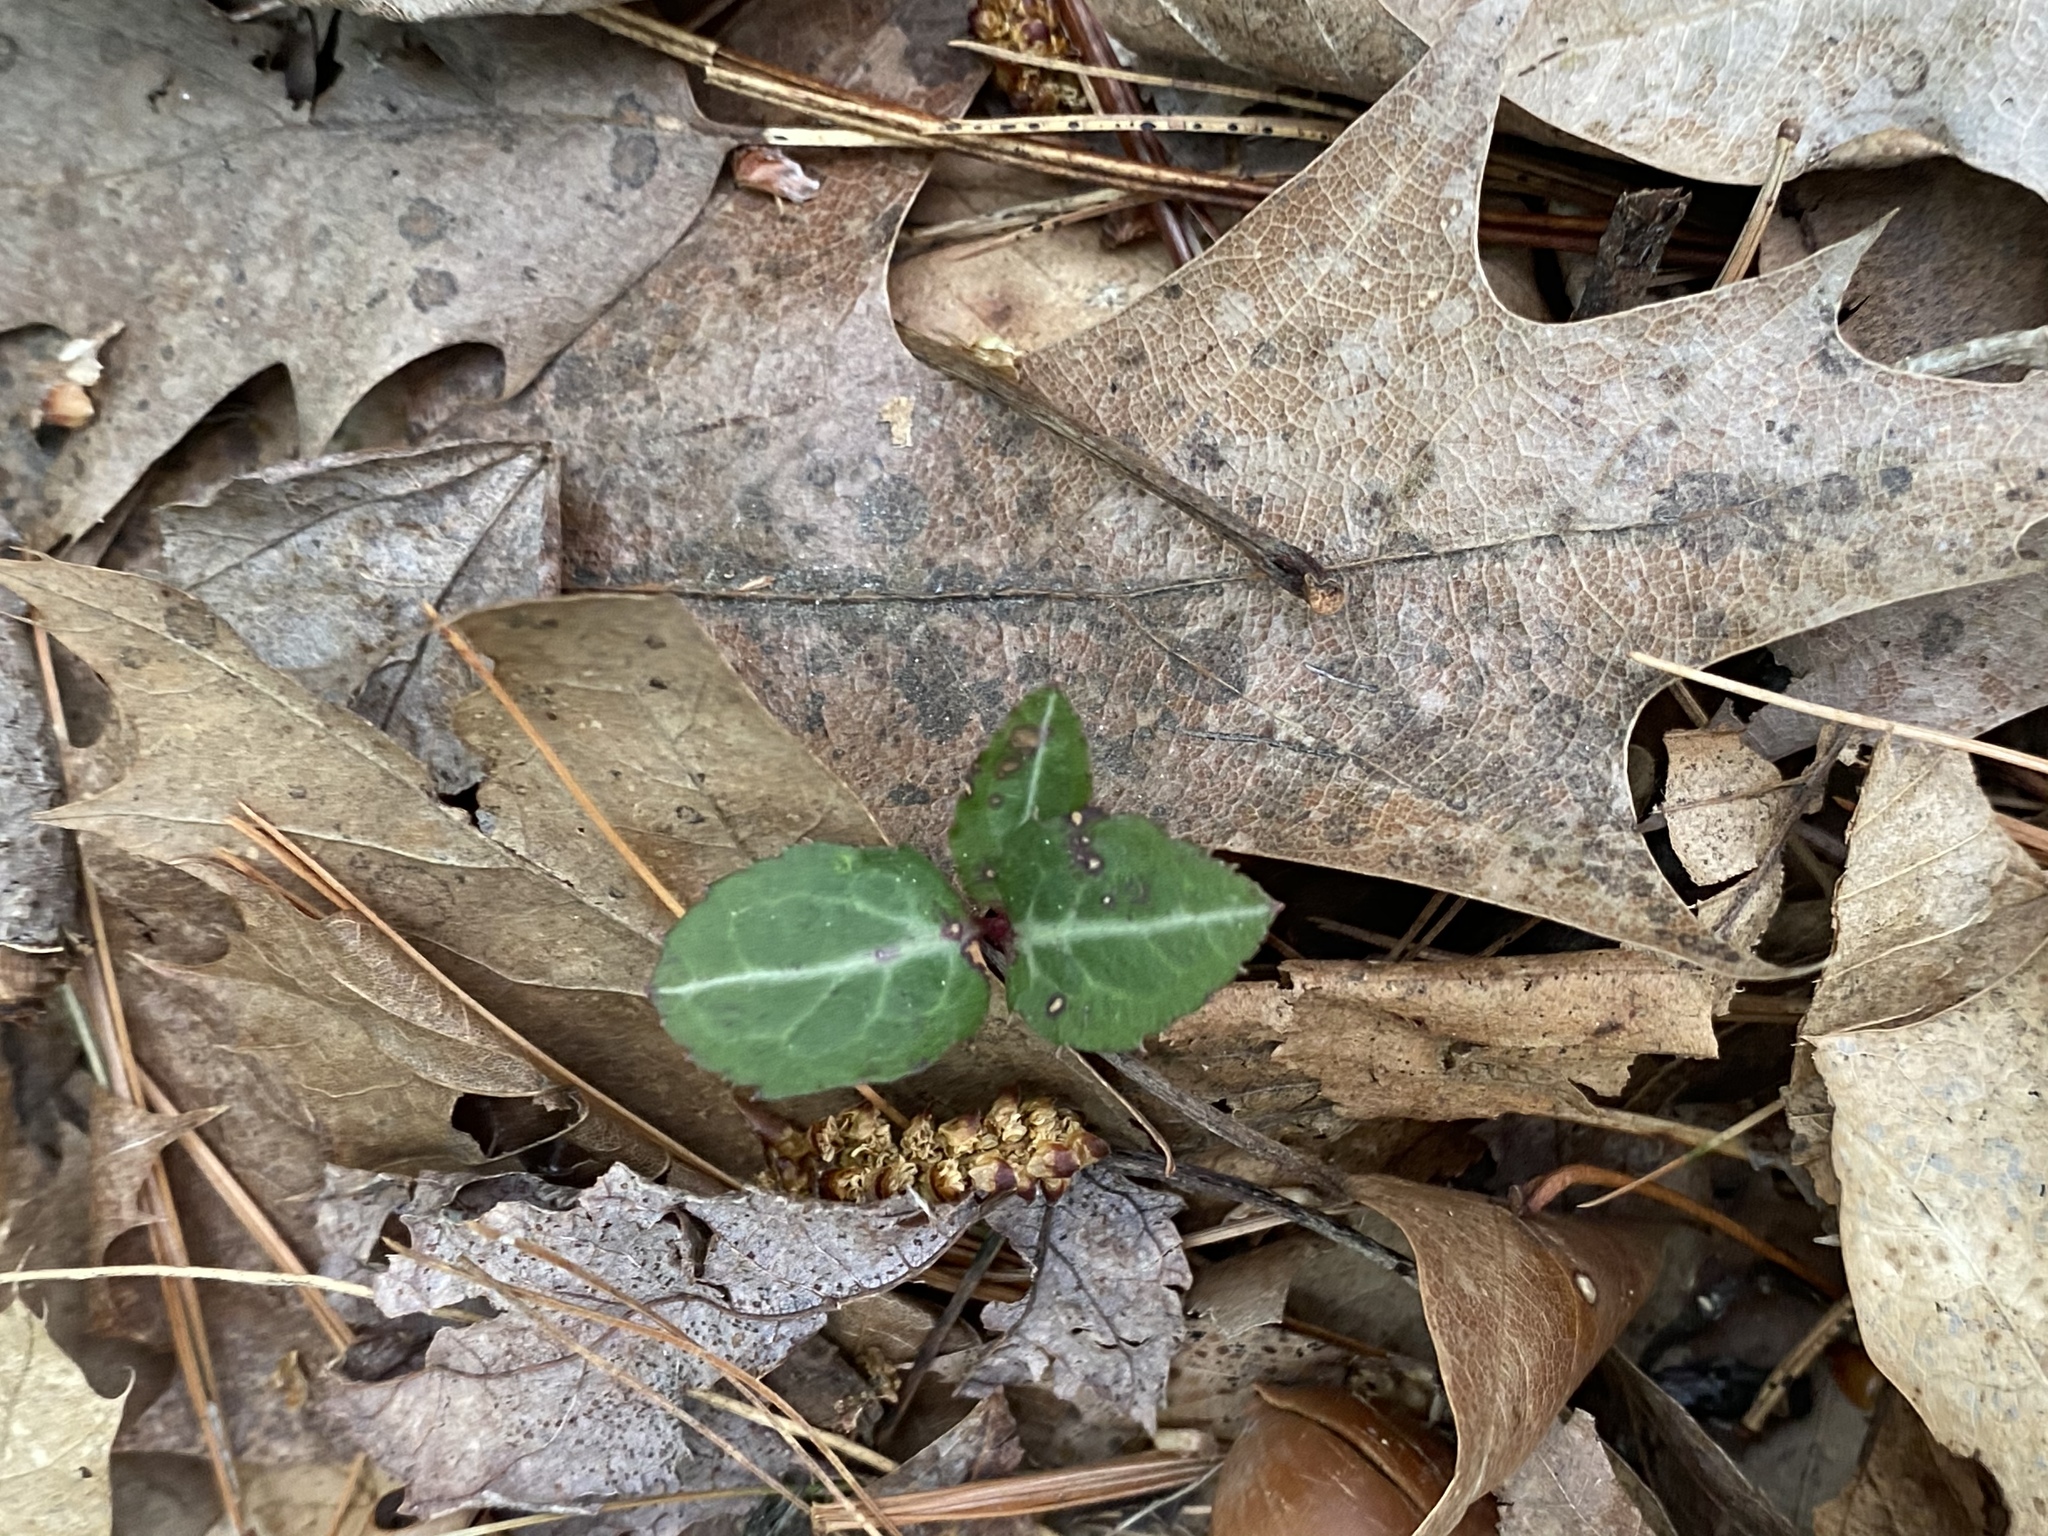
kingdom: Plantae
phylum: Tracheophyta
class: Magnoliopsida
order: Ericales
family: Ericaceae
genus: Chimaphila
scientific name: Chimaphila maculata
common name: Spotted pipsissewa
